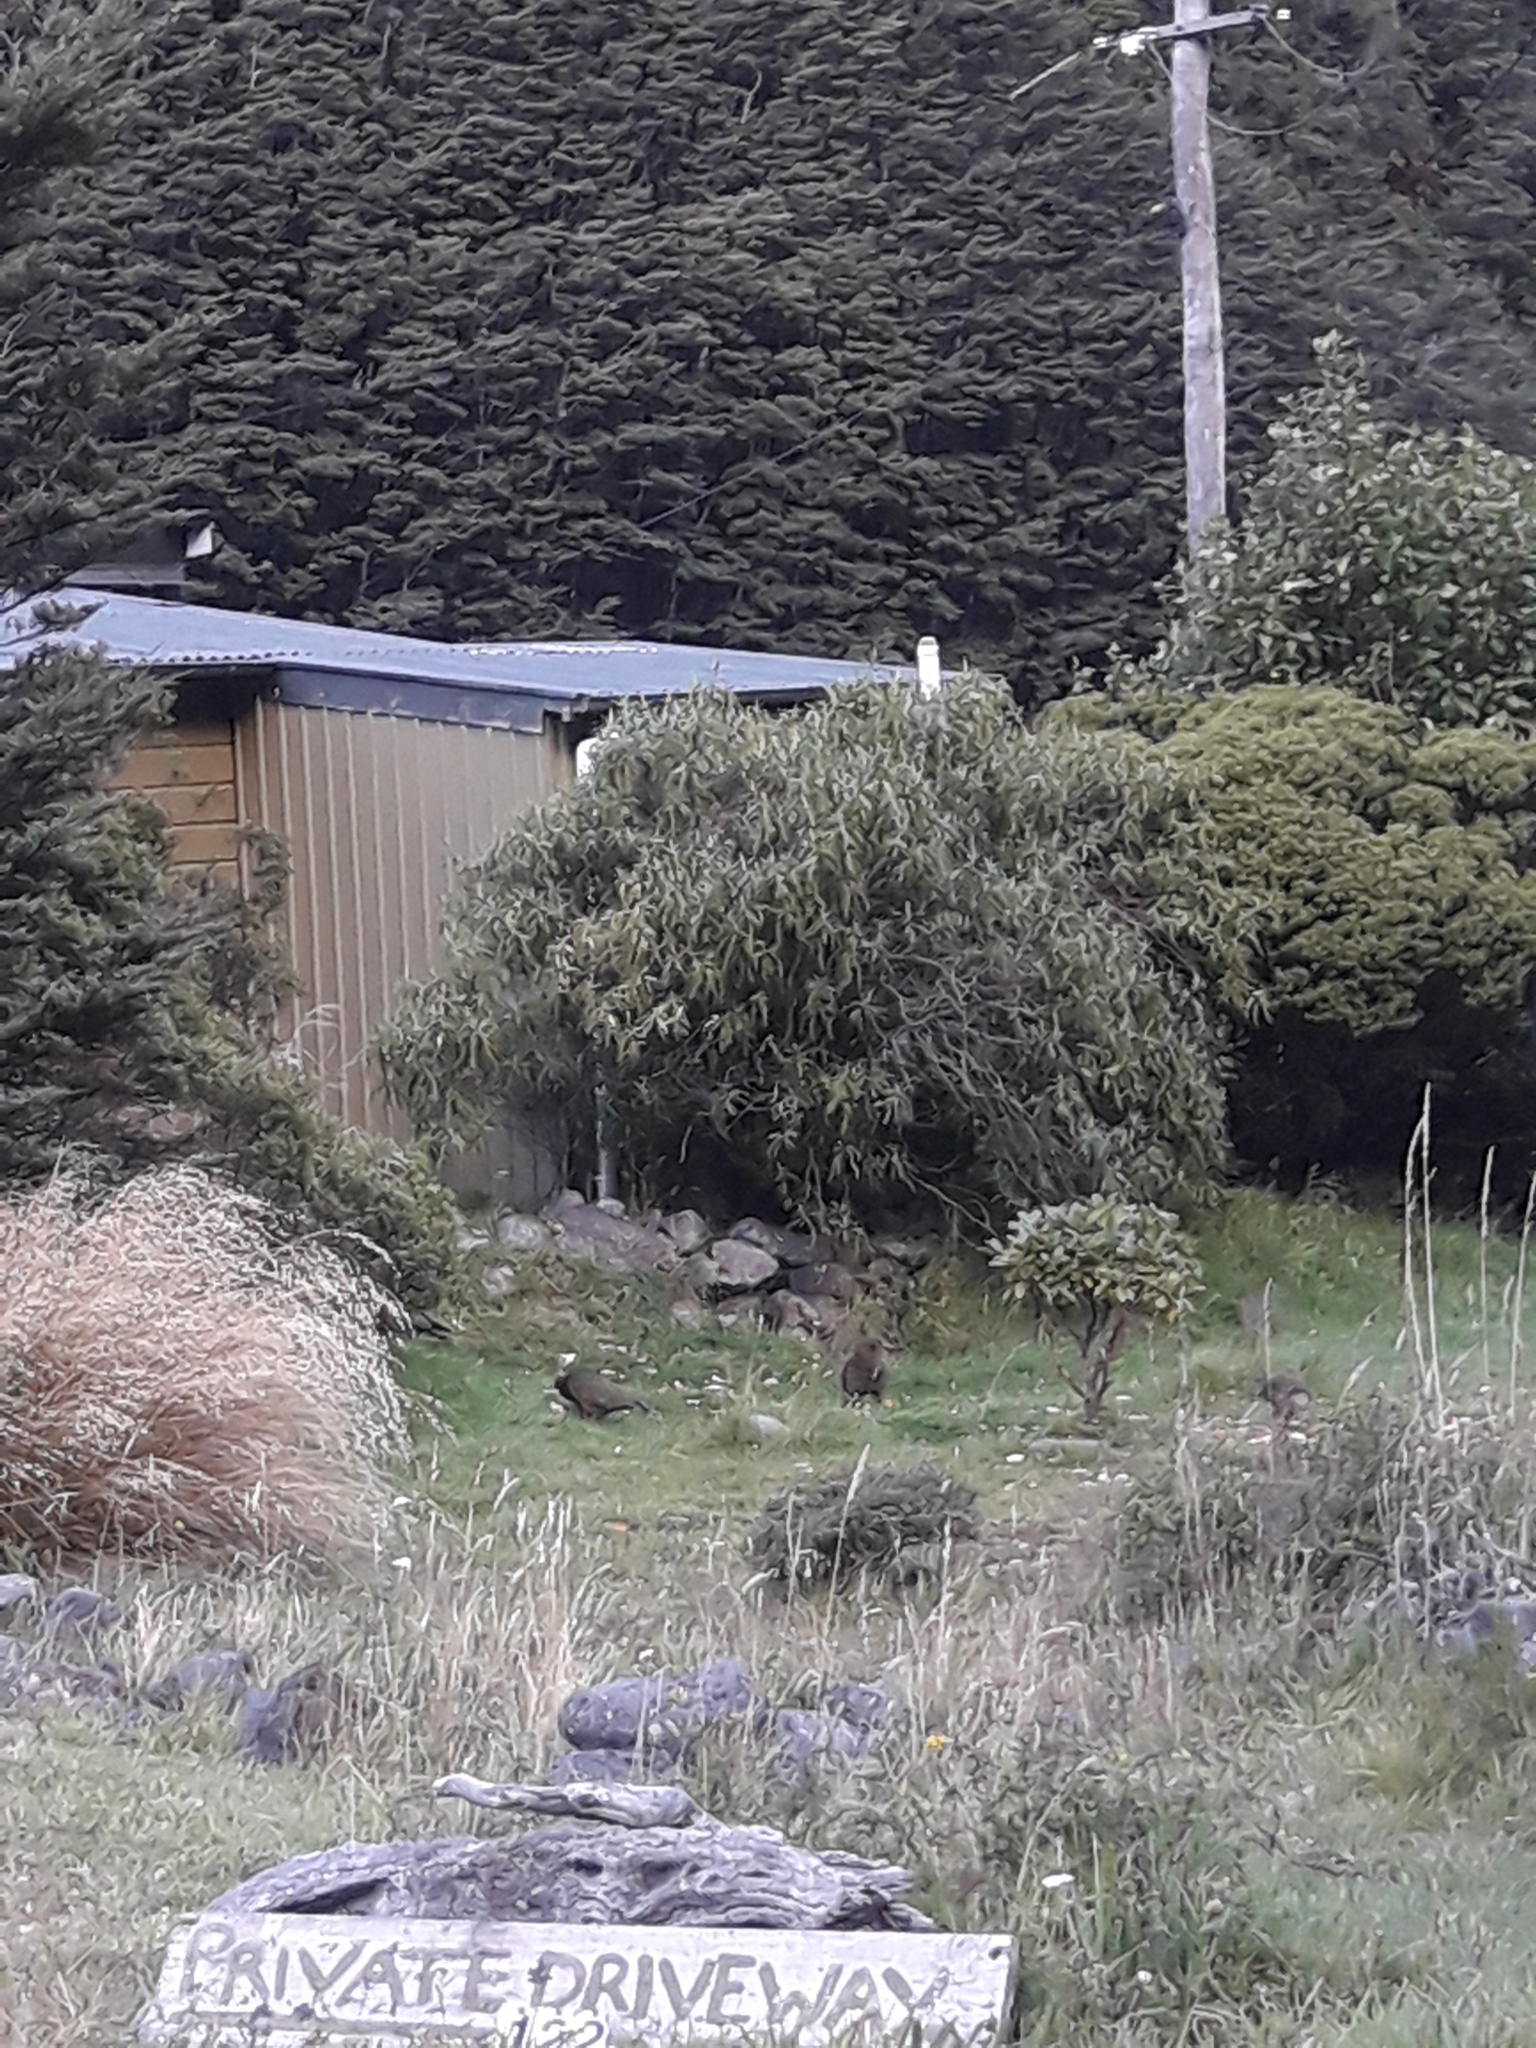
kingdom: Animalia
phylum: Chordata
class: Aves
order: Psittaciformes
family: Psittacidae
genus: Nestor
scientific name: Nestor notabilis
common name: Kea
